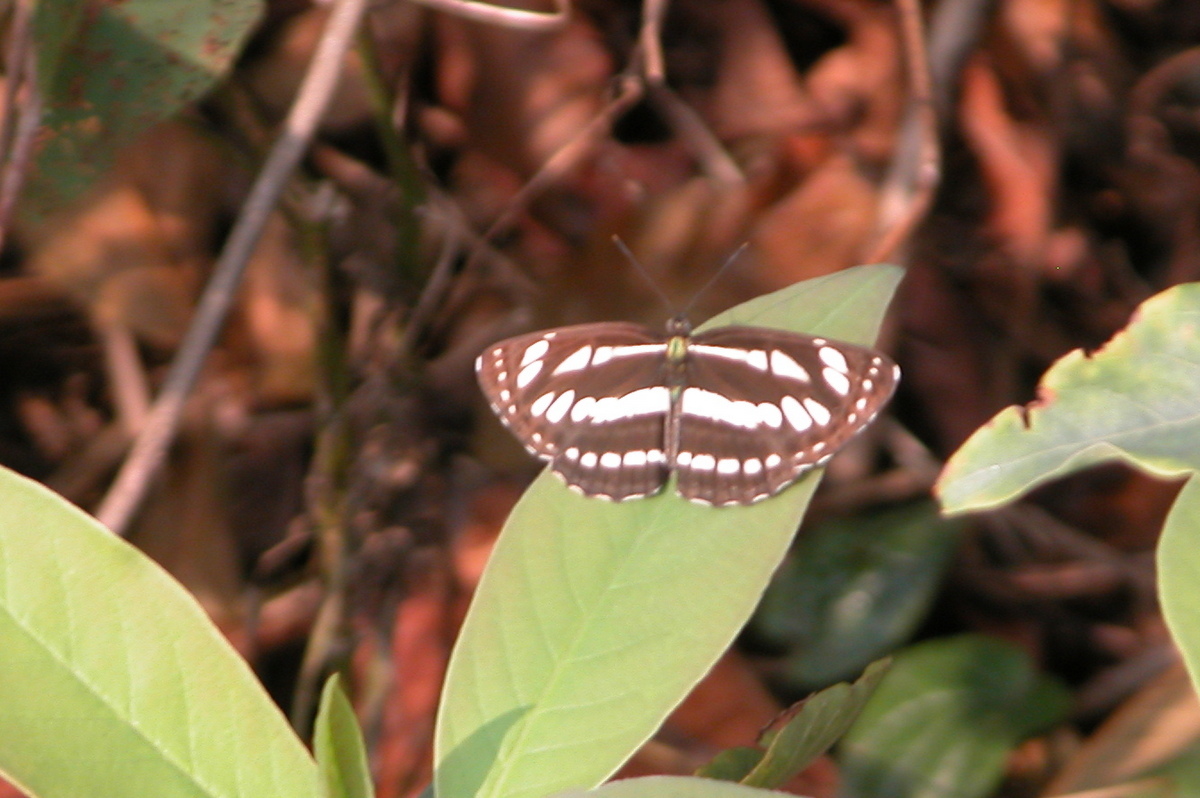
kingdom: Animalia
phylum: Arthropoda
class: Insecta
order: Lepidoptera
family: Nymphalidae
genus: Neptis
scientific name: Neptis hylas
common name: Common sailer
